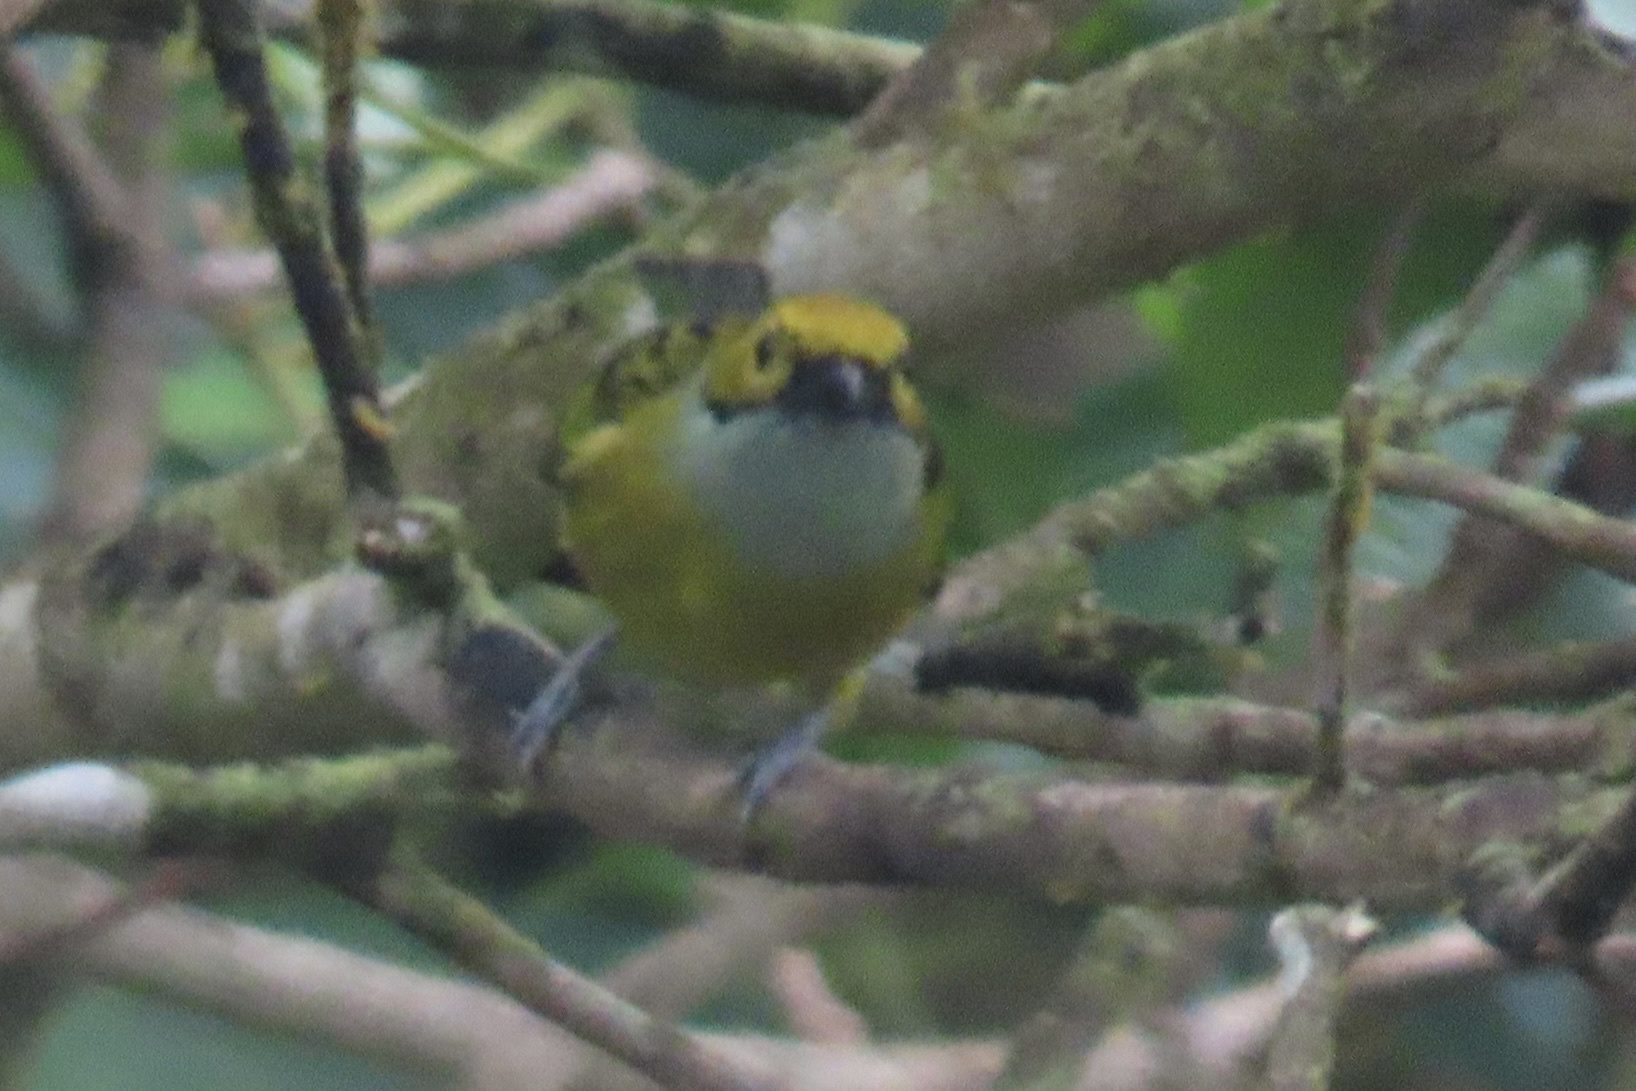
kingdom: Animalia
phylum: Chordata
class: Aves
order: Passeriformes
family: Thraupidae
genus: Tangara
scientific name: Tangara icterocephala
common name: Silver-throated tanager
